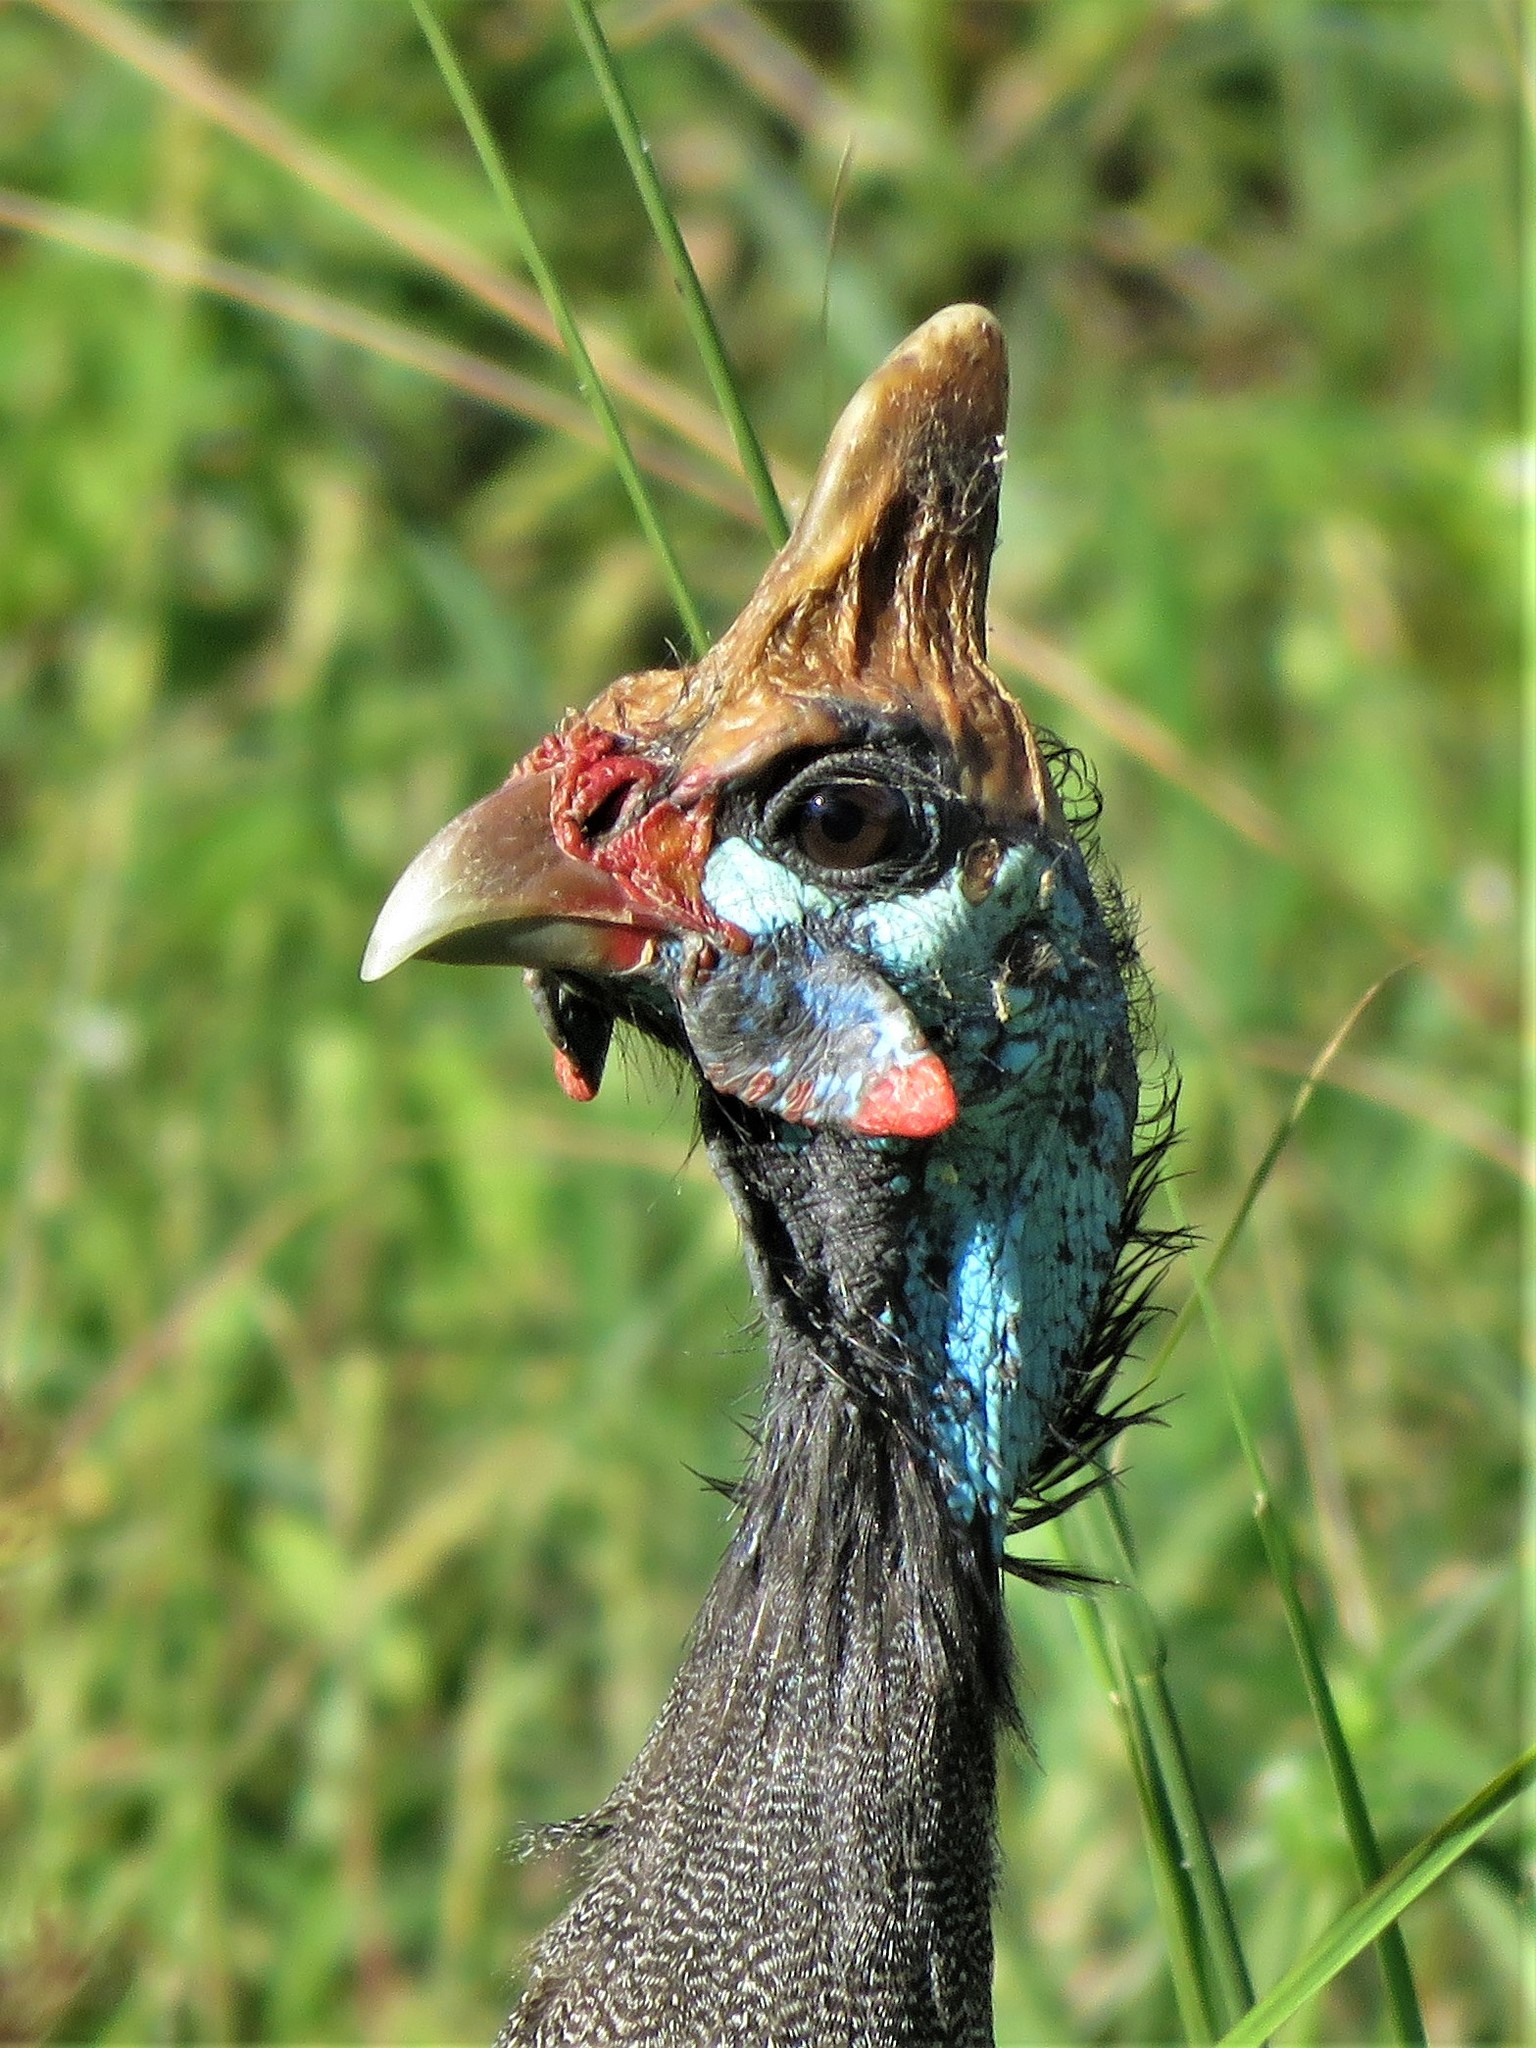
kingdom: Animalia
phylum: Chordata
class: Aves
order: Galliformes
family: Numididae
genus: Numida
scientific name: Numida meleagris
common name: Helmeted guineafowl
